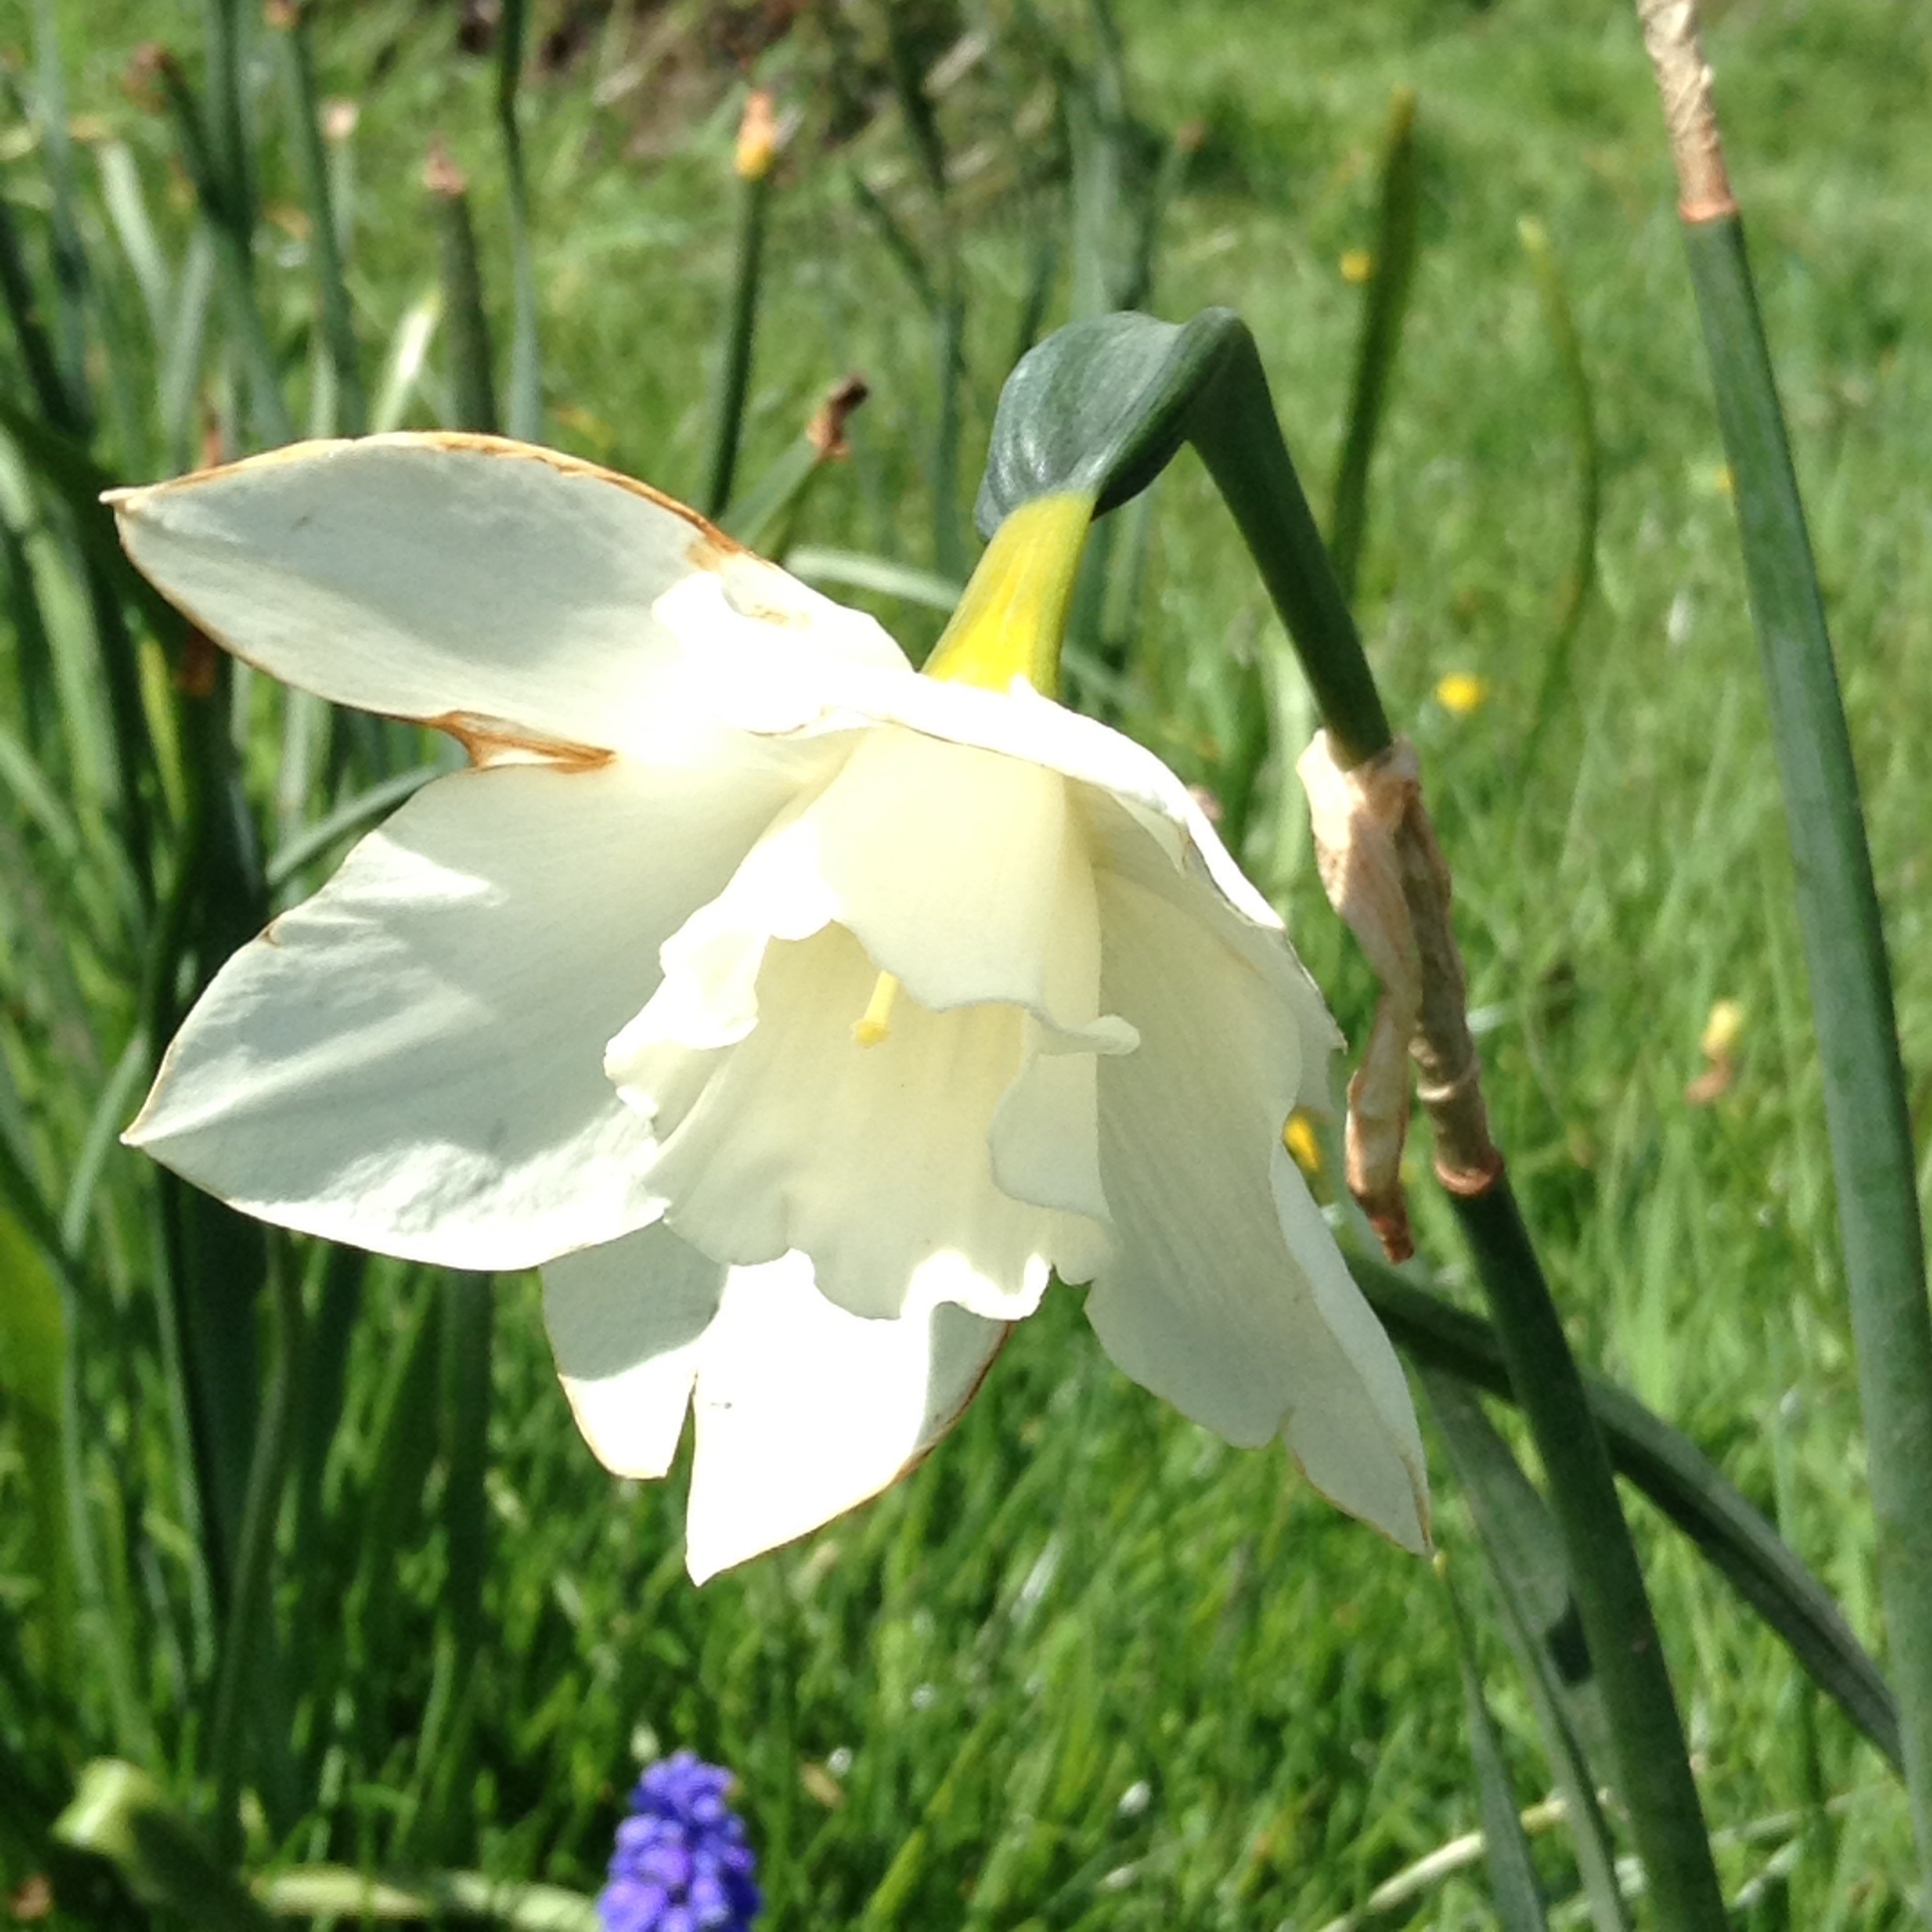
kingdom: Plantae
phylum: Tracheophyta
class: Liliopsida
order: Asparagales
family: Amaryllidaceae
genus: Narcissus
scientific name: Narcissus
